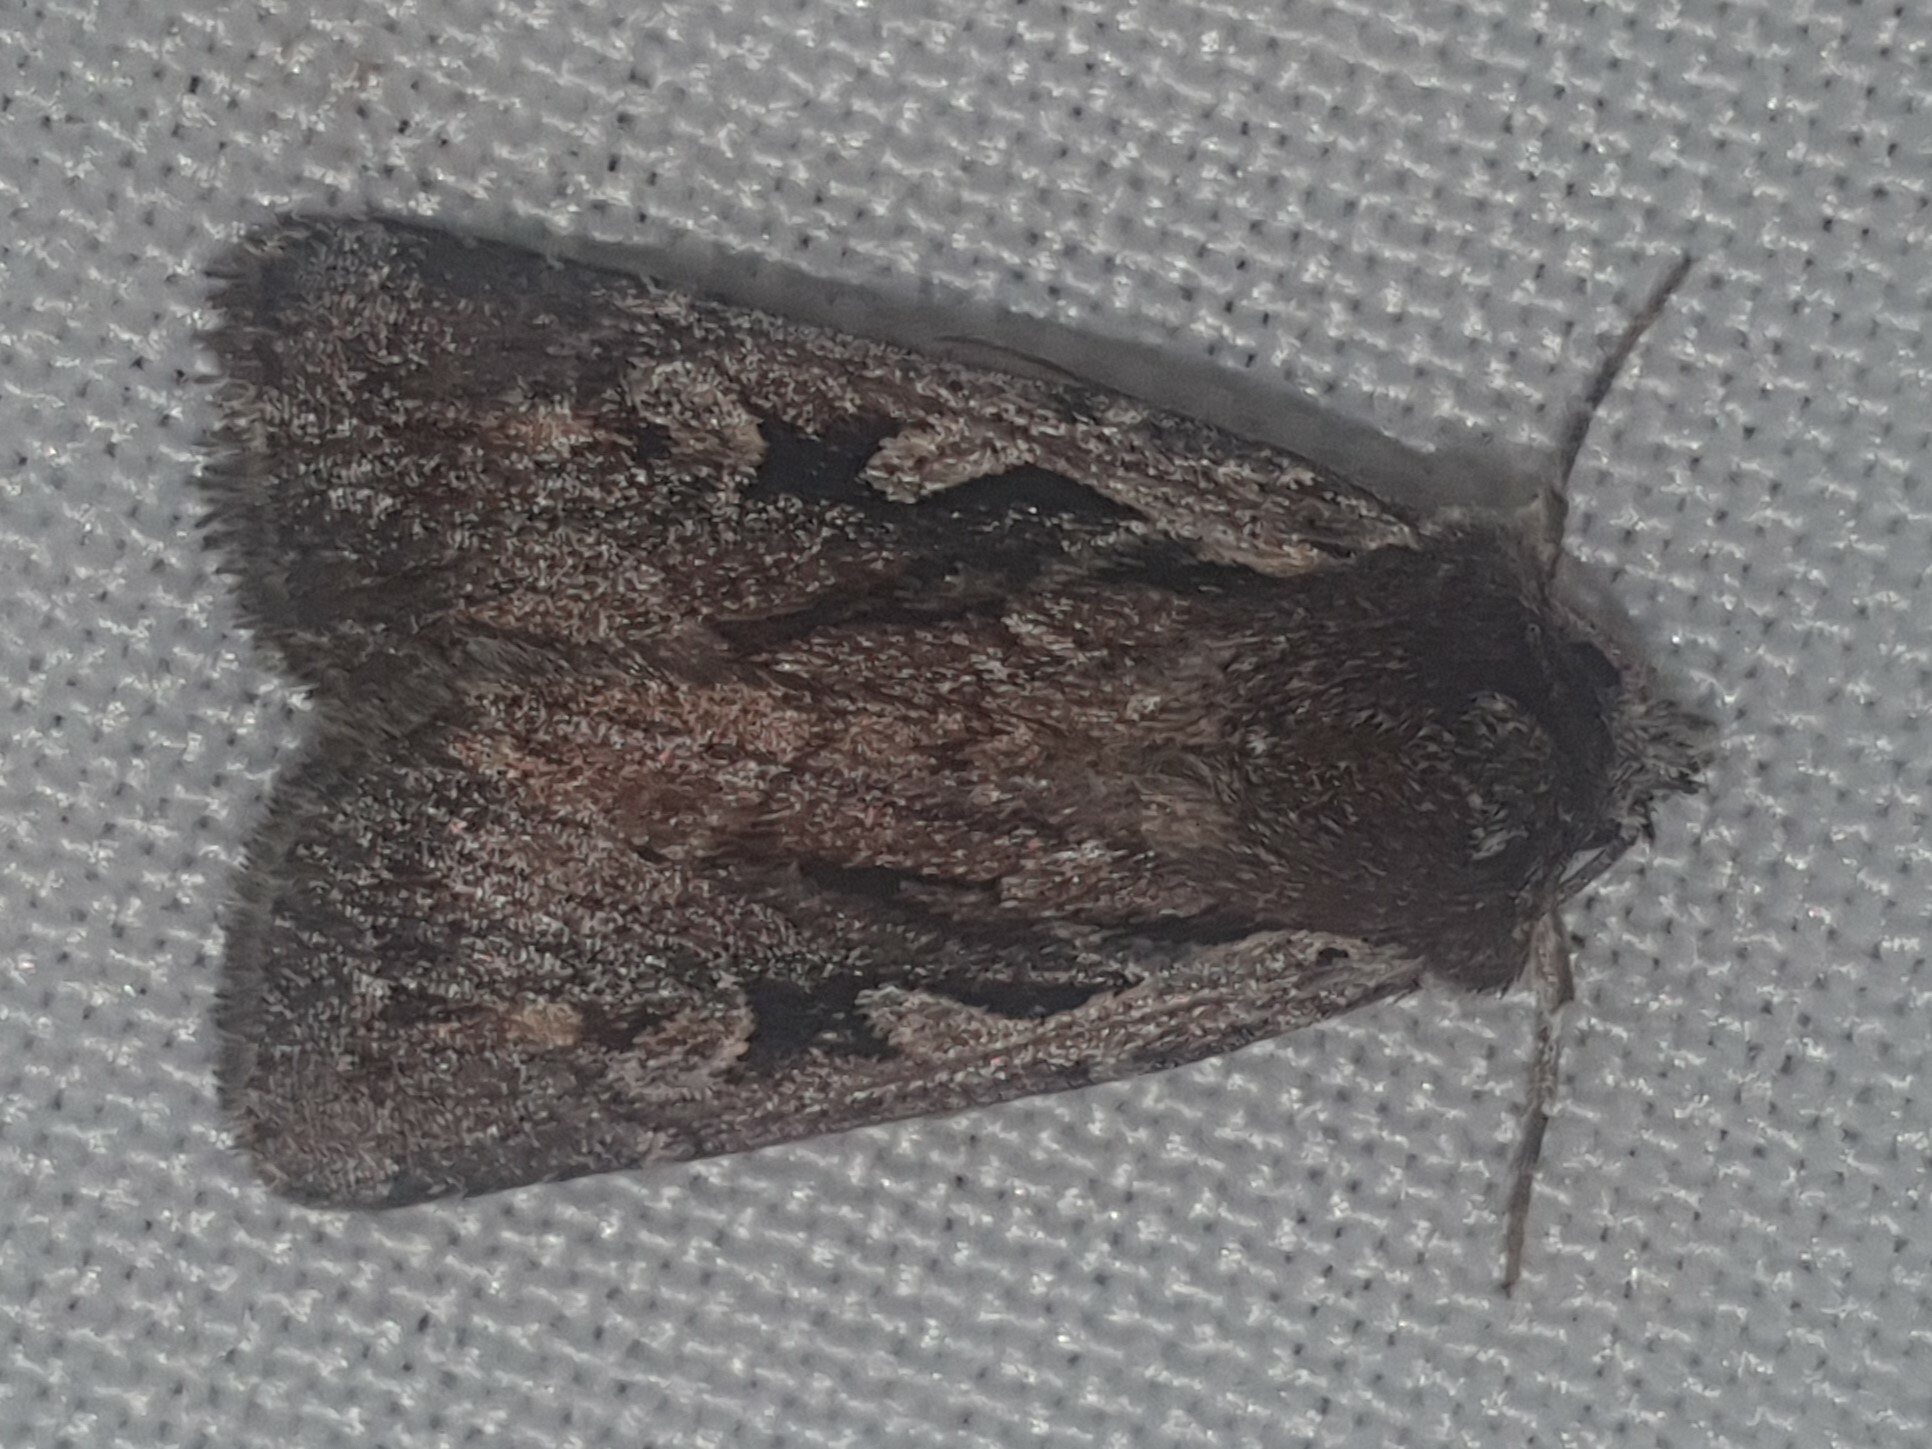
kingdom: Animalia
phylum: Arthropoda
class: Insecta
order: Lepidoptera
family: Noctuidae
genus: Xestia
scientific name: Xestia agathina
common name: Heath rustic
